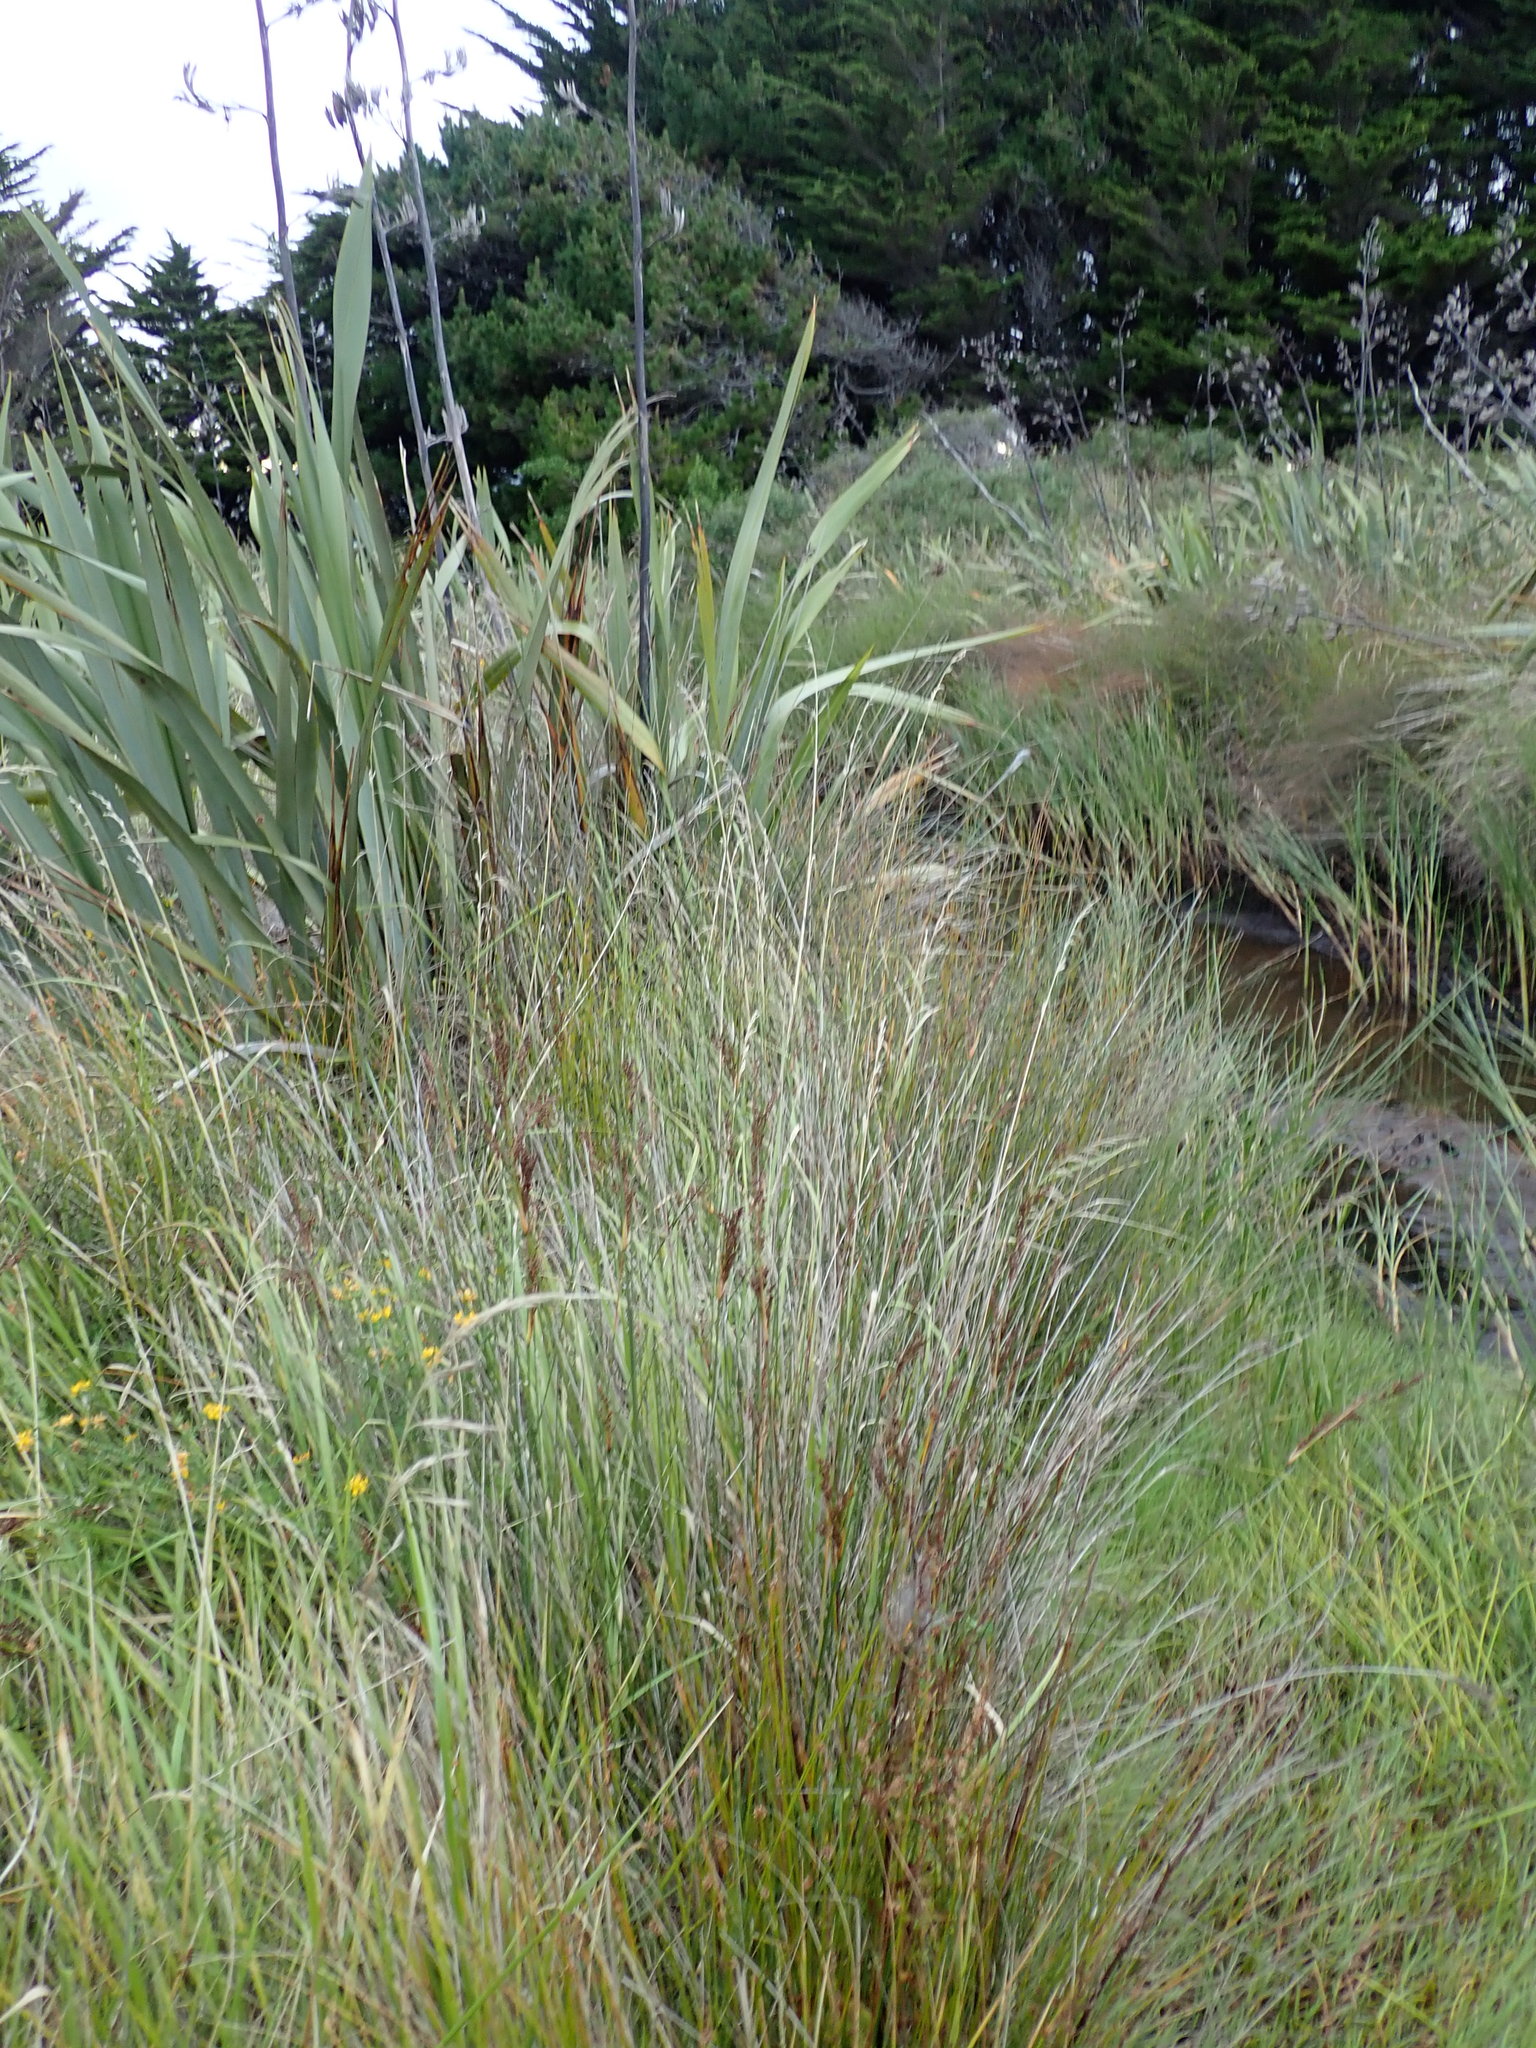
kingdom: Plantae
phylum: Tracheophyta
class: Liliopsida
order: Poales
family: Juncaceae
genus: Juncus
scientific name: Juncus kraussii
